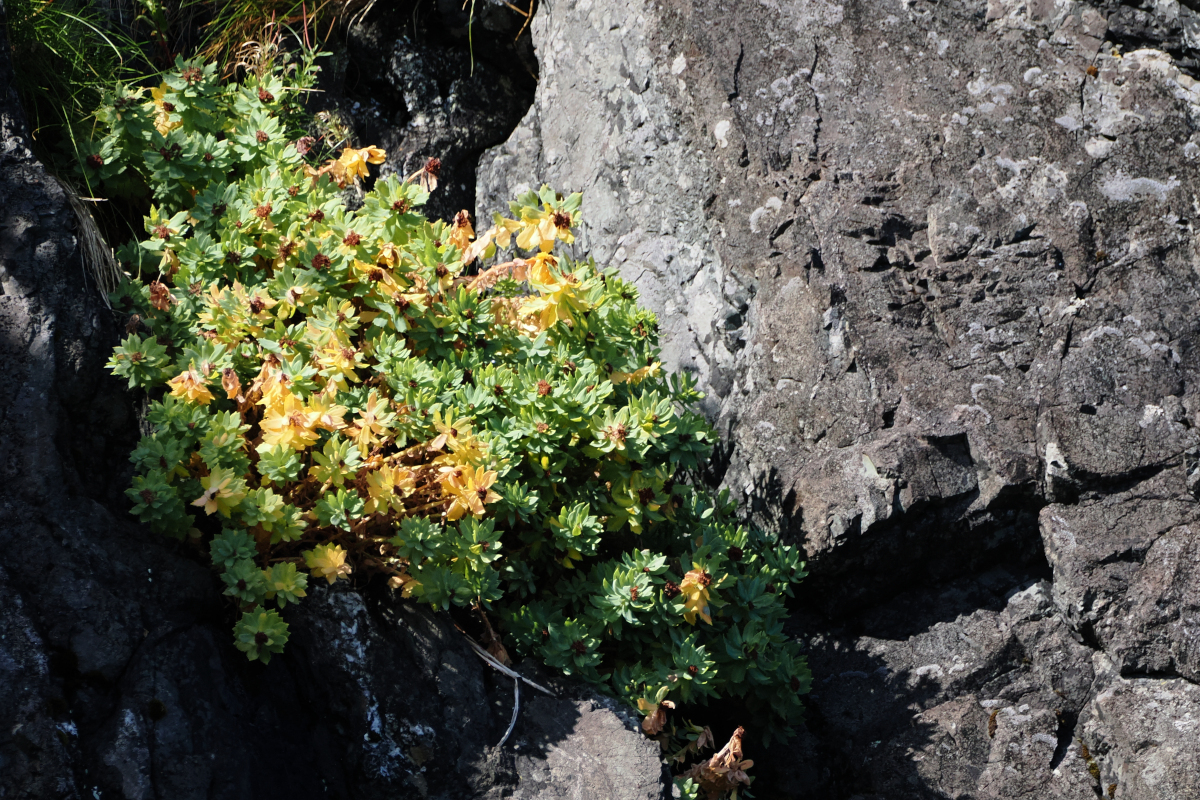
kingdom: Plantae
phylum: Tracheophyta
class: Magnoliopsida
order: Saxifragales
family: Crassulaceae
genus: Rhodiola
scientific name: Rhodiola integrifolia
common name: Western roseroot
